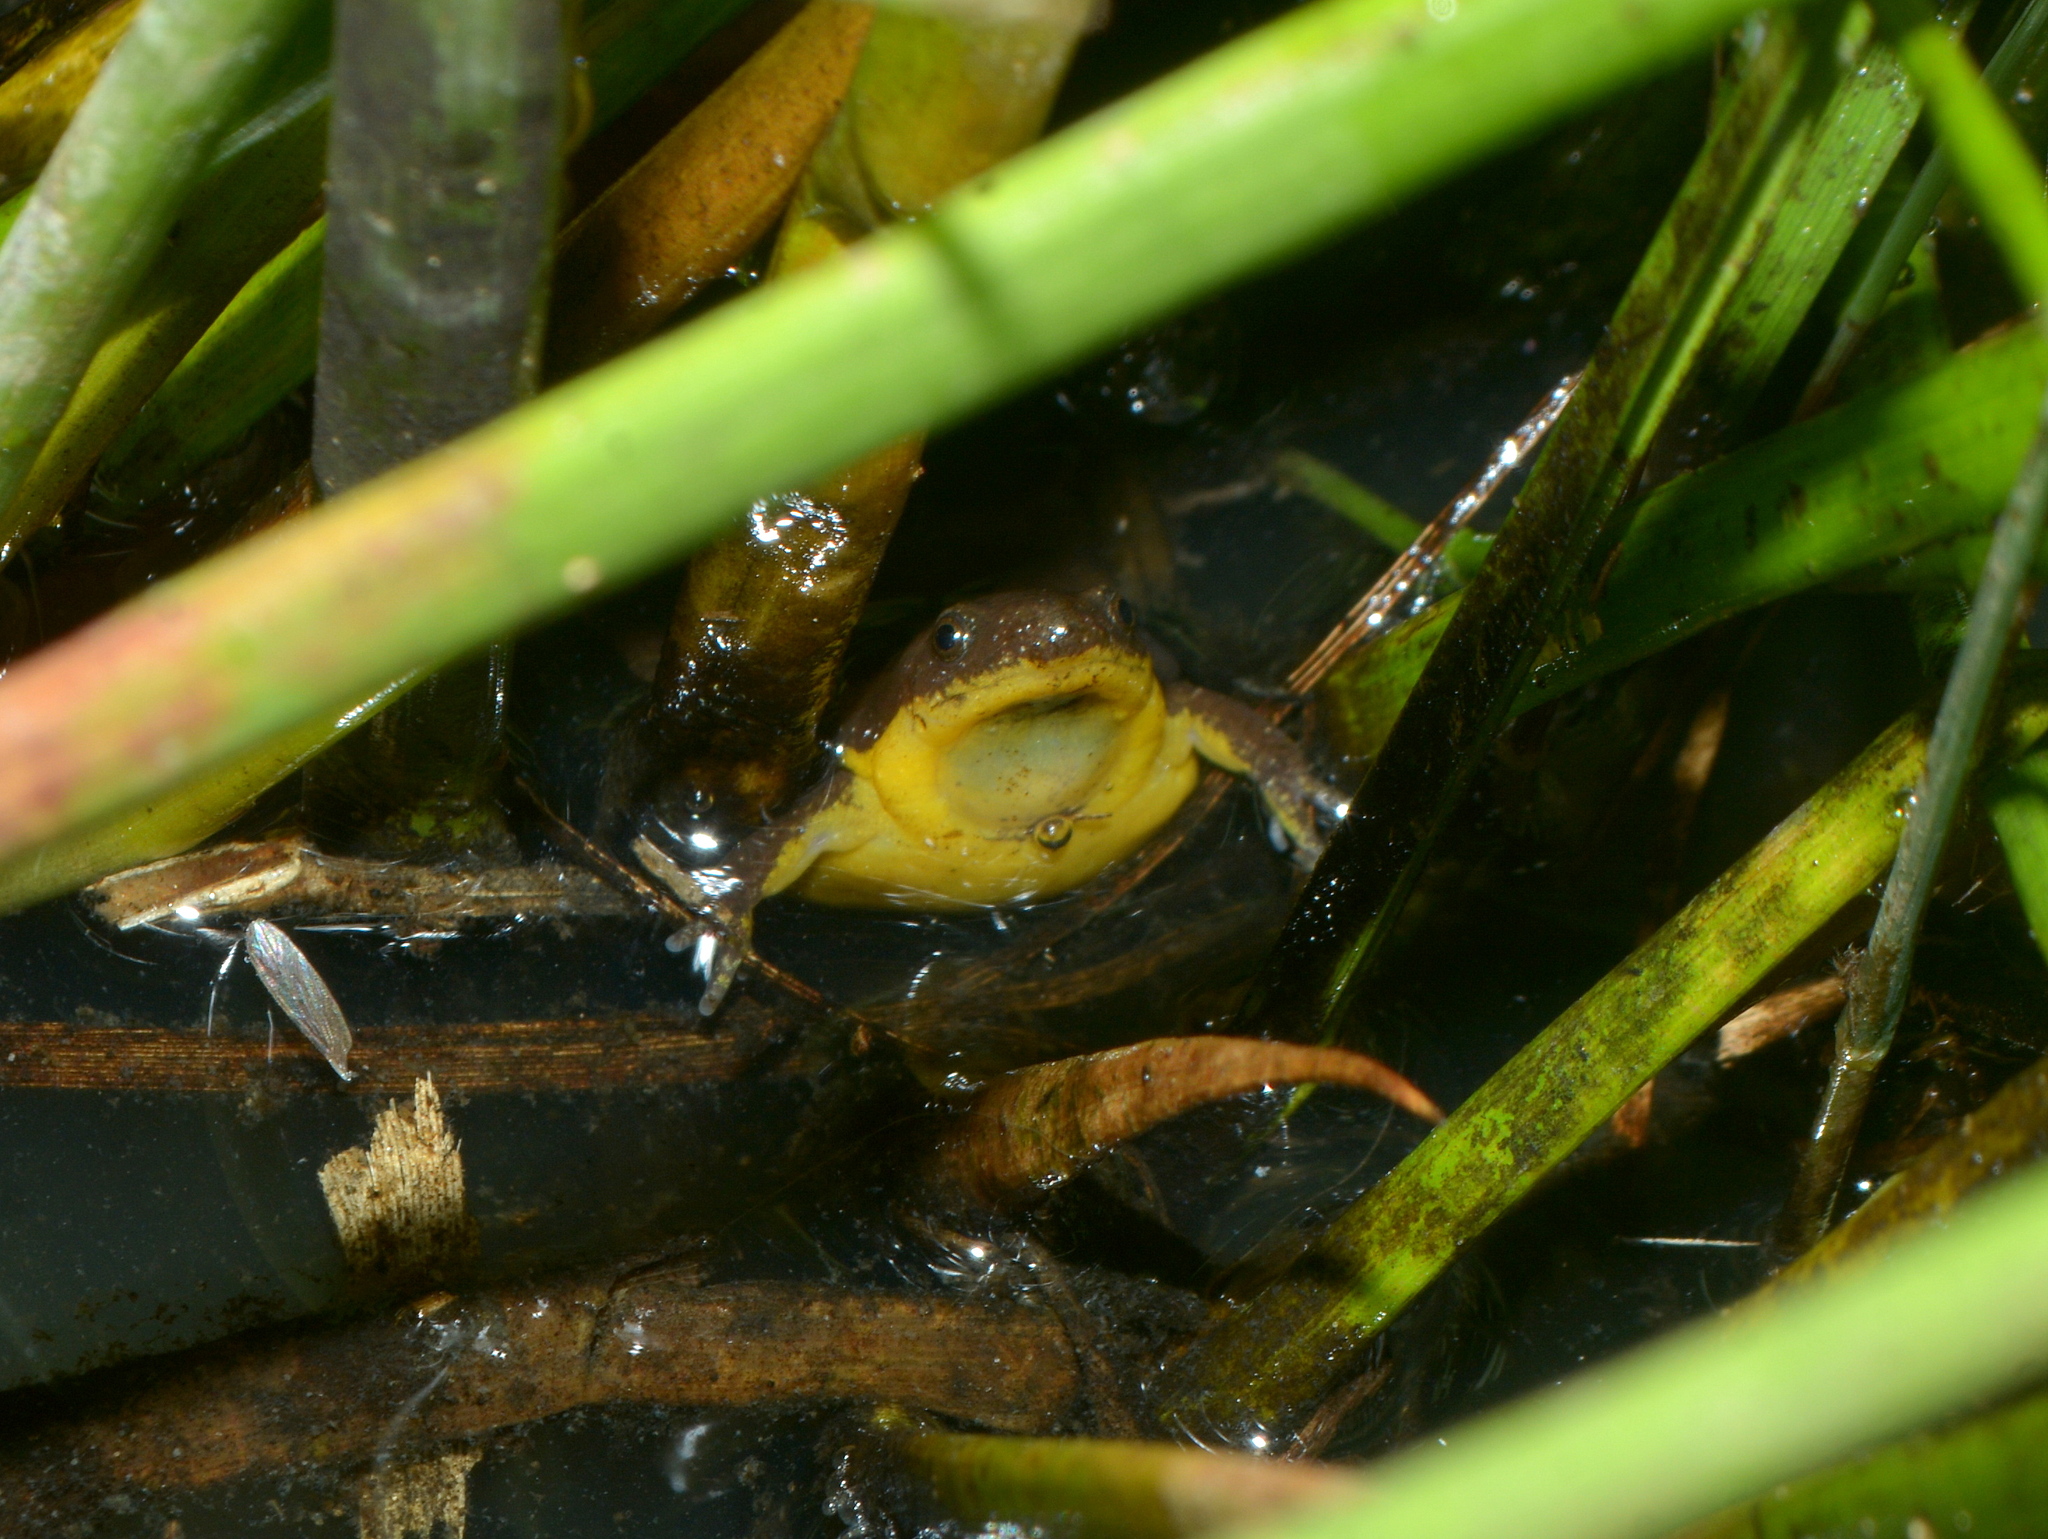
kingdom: Animalia
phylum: Chordata
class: Amphibia
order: Anura
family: Microhylidae
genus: Elachistocleis
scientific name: Elachistocleis bicolor
